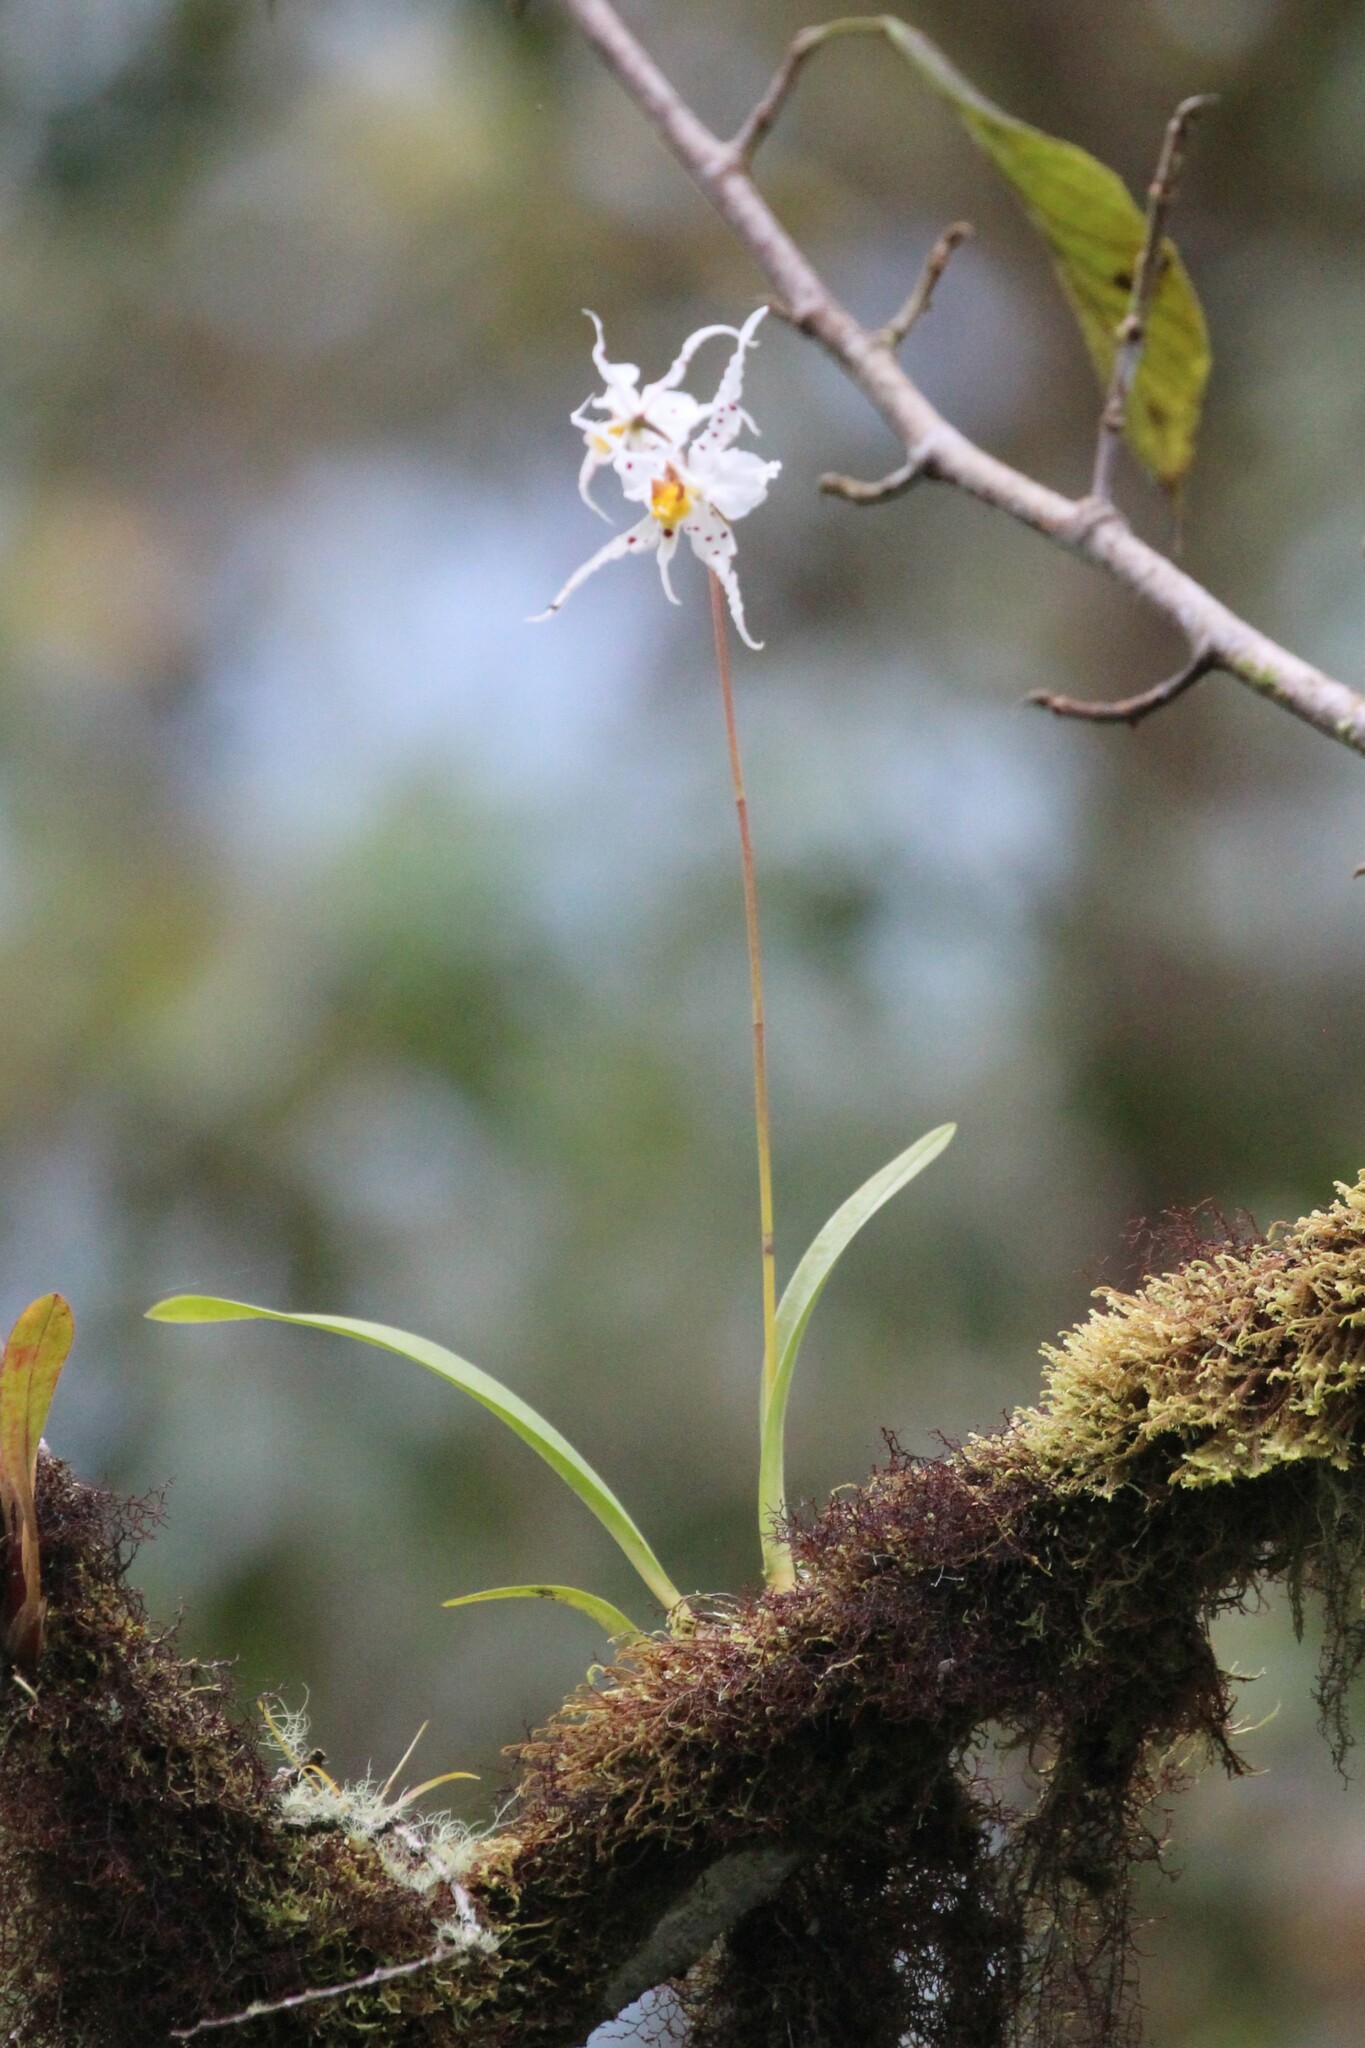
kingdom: Plantae
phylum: Tracheophyta
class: Liliopsida
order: Asparagales
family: Orchidaceae
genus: Oncidium
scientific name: Oncidium cirrhosum
